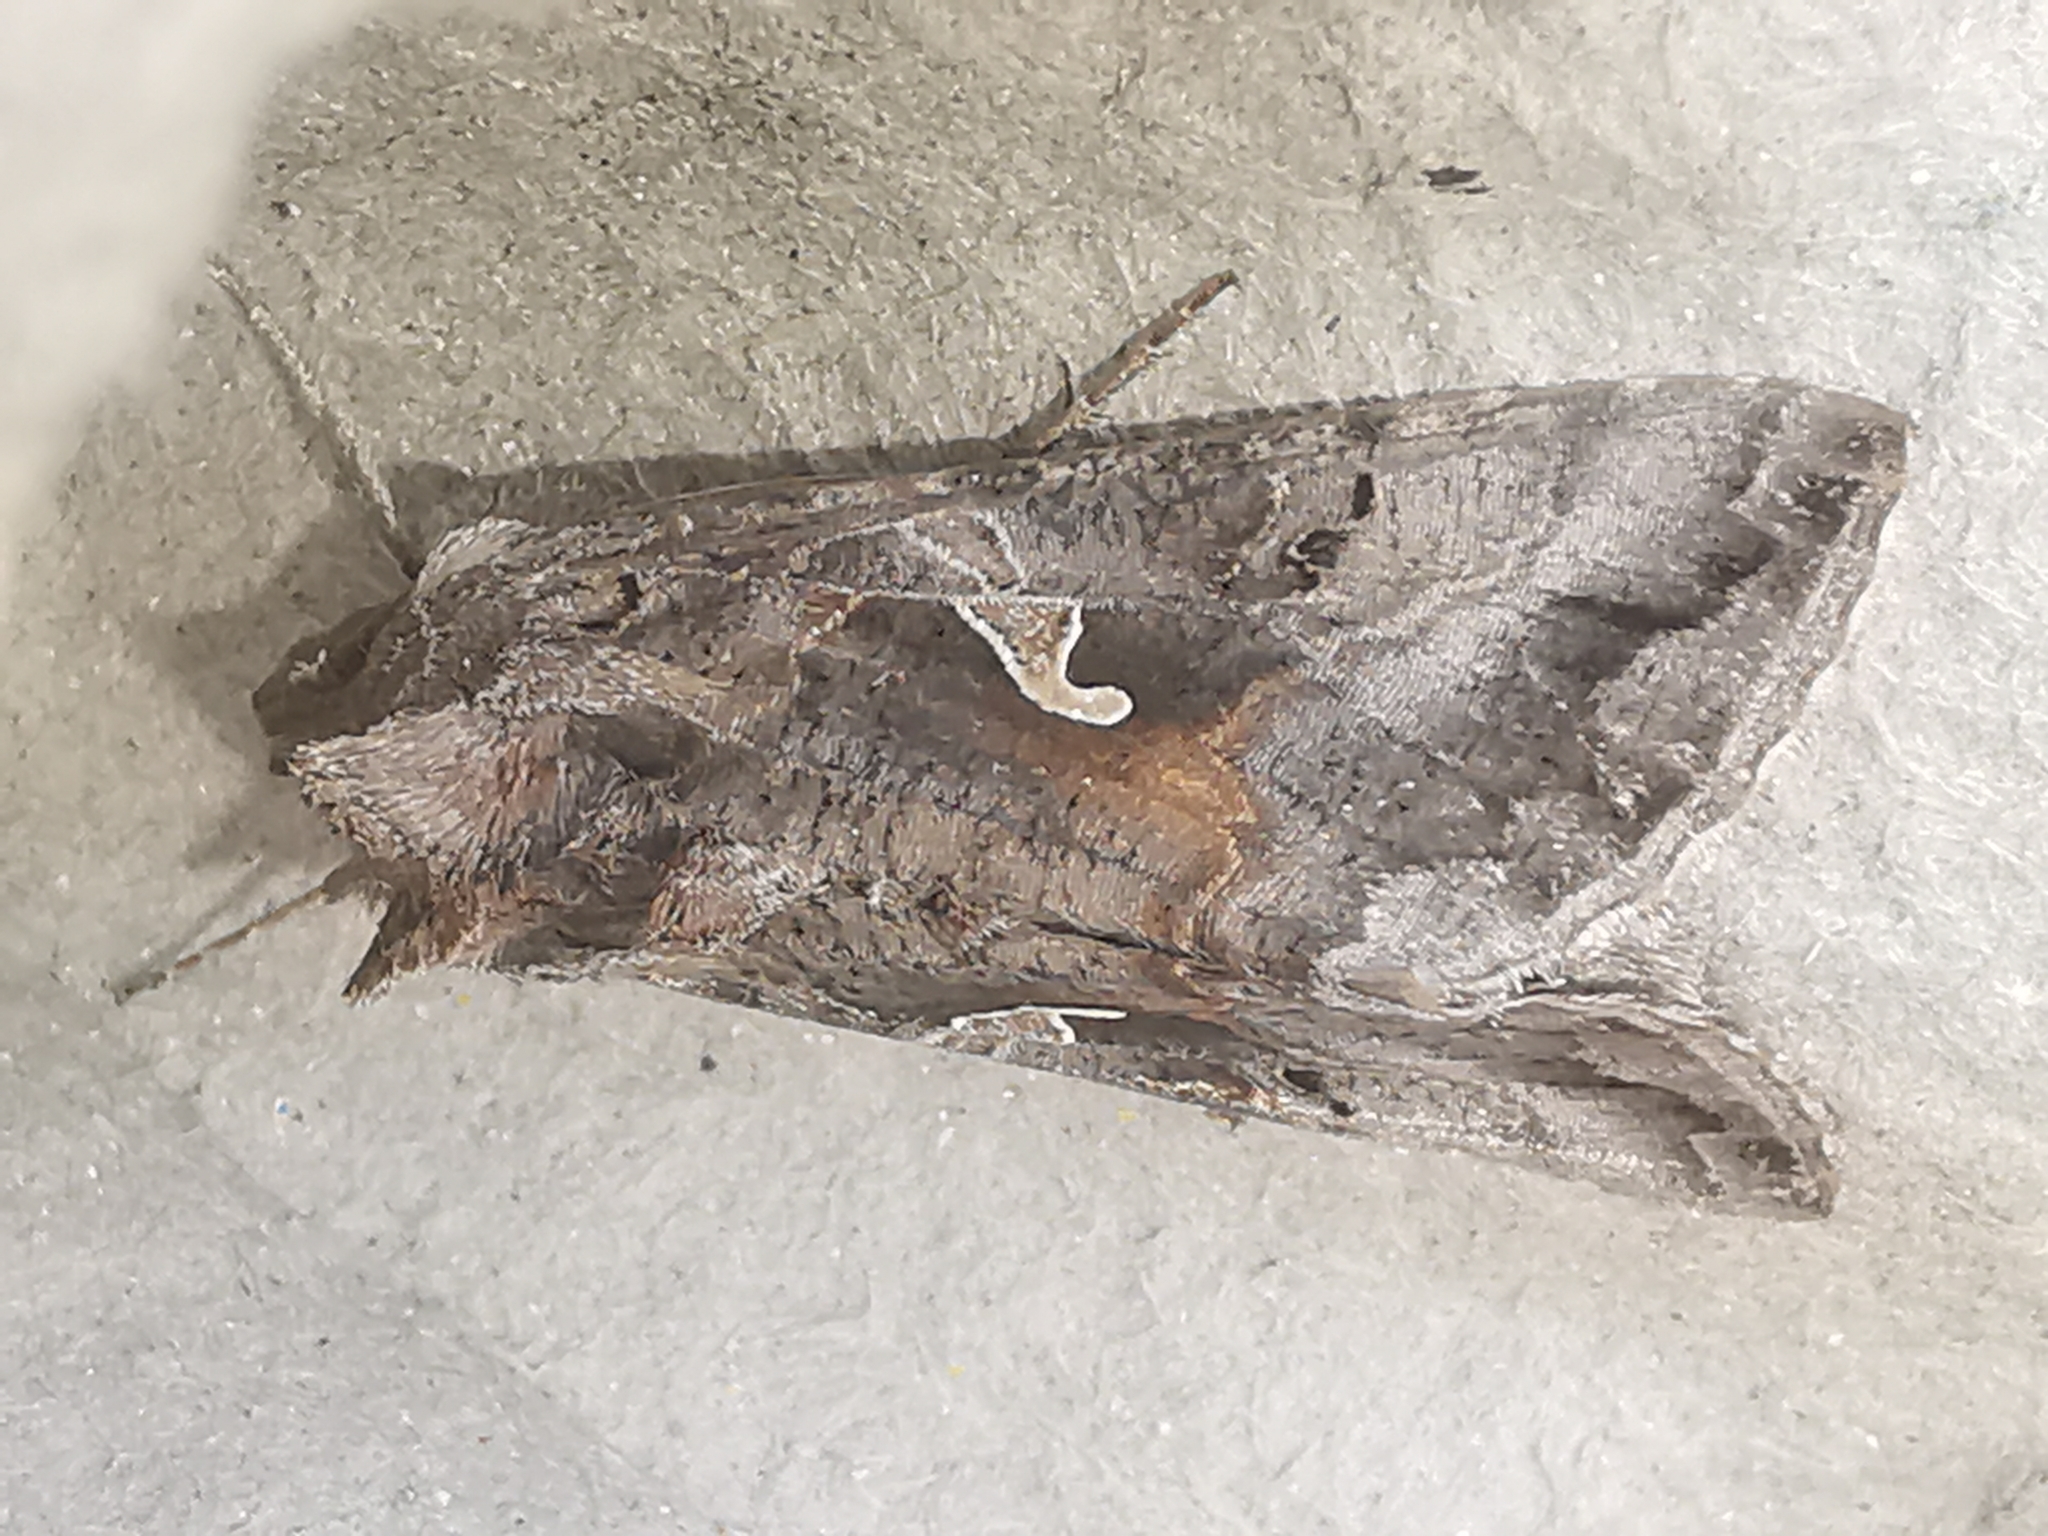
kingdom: Animalia
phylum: Arthropoda
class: Insecta
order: Lepidoptera
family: Noctuidae
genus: Autographa
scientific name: Autographa gamma
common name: Silver y
